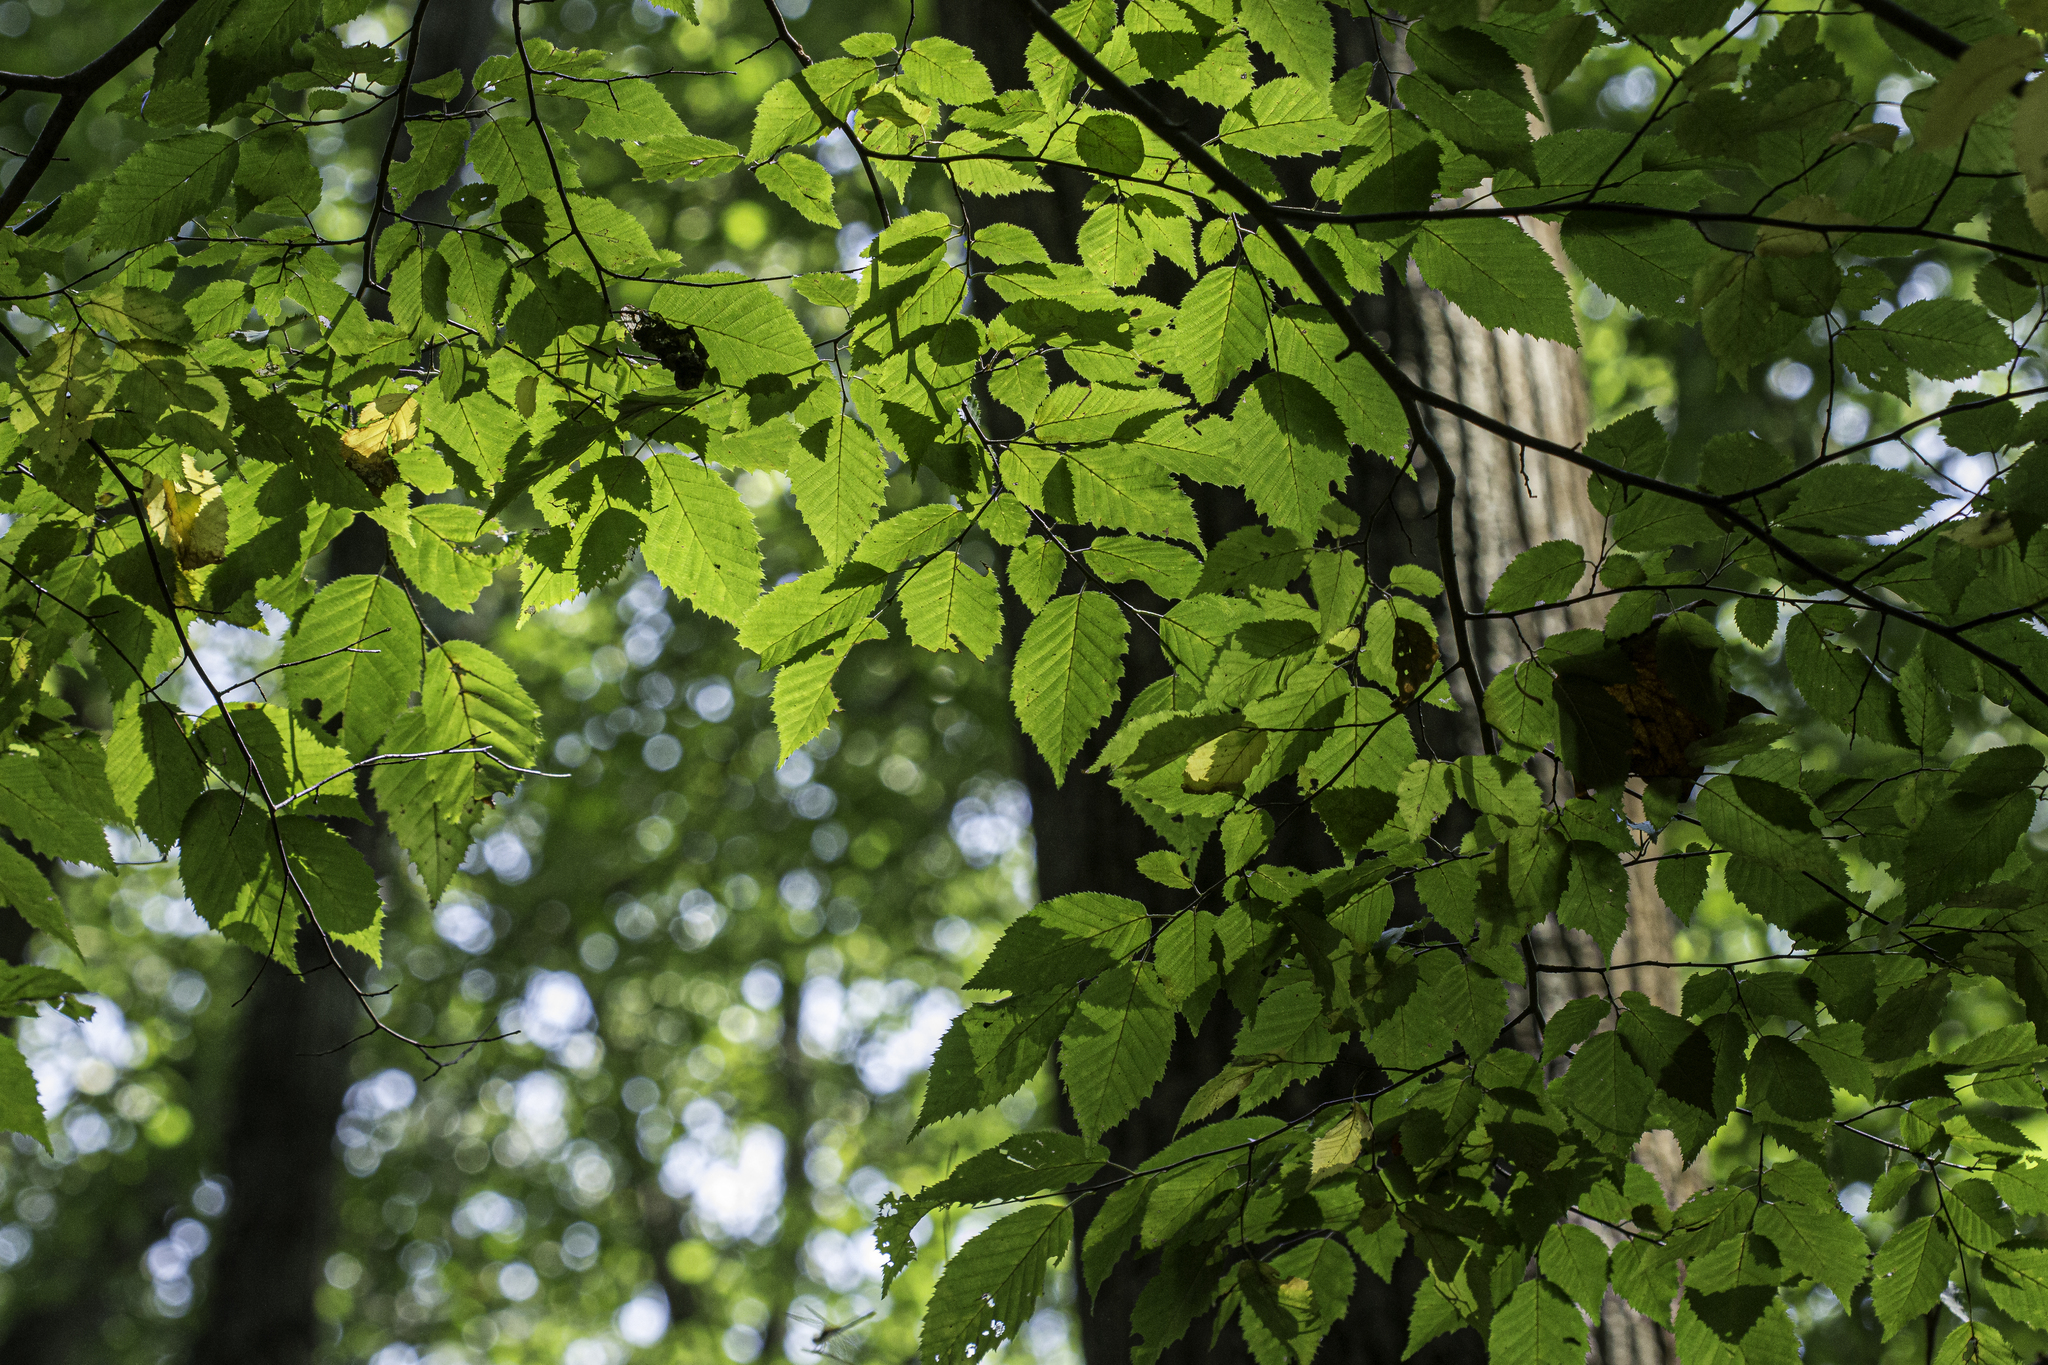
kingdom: Plantae
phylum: Tracheophyta
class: Magnoliopsida
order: Fagales
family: Betulaceae
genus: Carpinus
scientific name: Carpinus caroliniana
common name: American hornbeam
